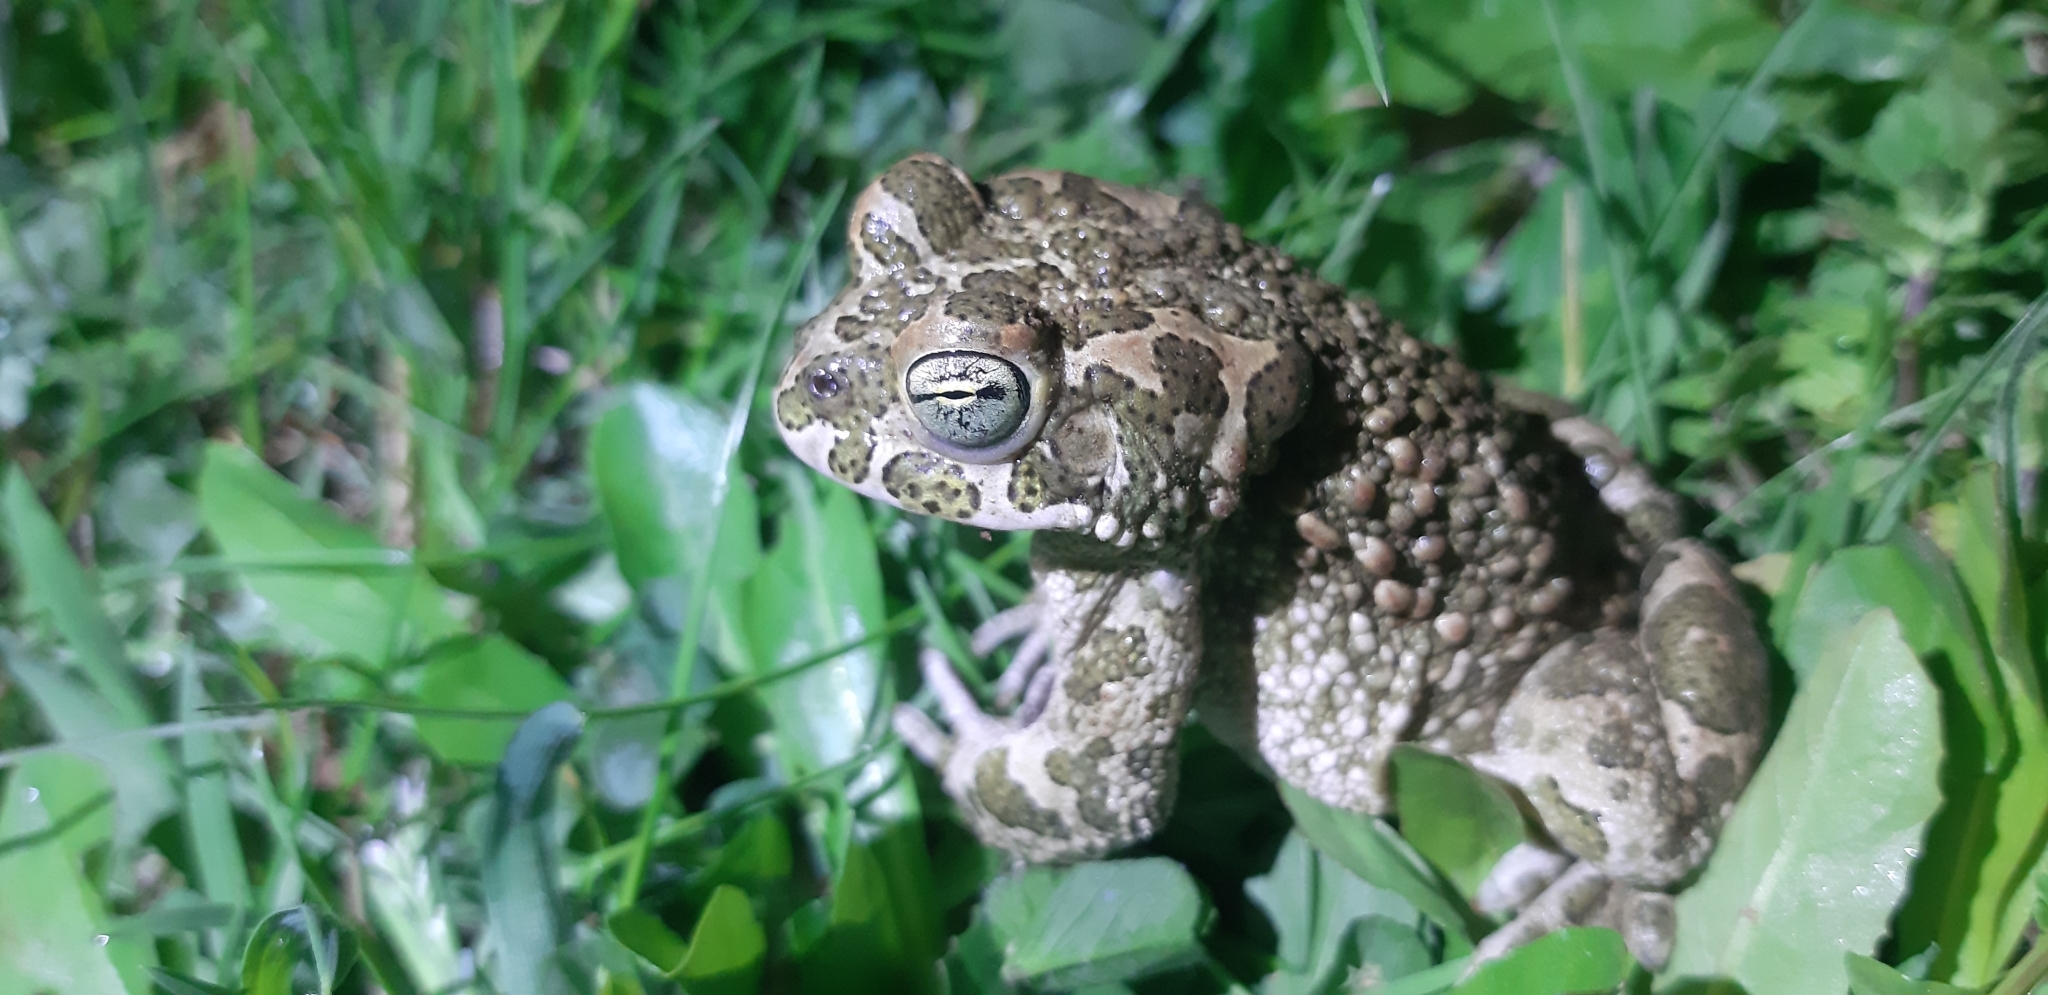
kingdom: Animalia
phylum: Chordata
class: Amphibia
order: Anura
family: Bufonidae
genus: Bufotes
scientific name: Bufotes viridis
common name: European green toad
